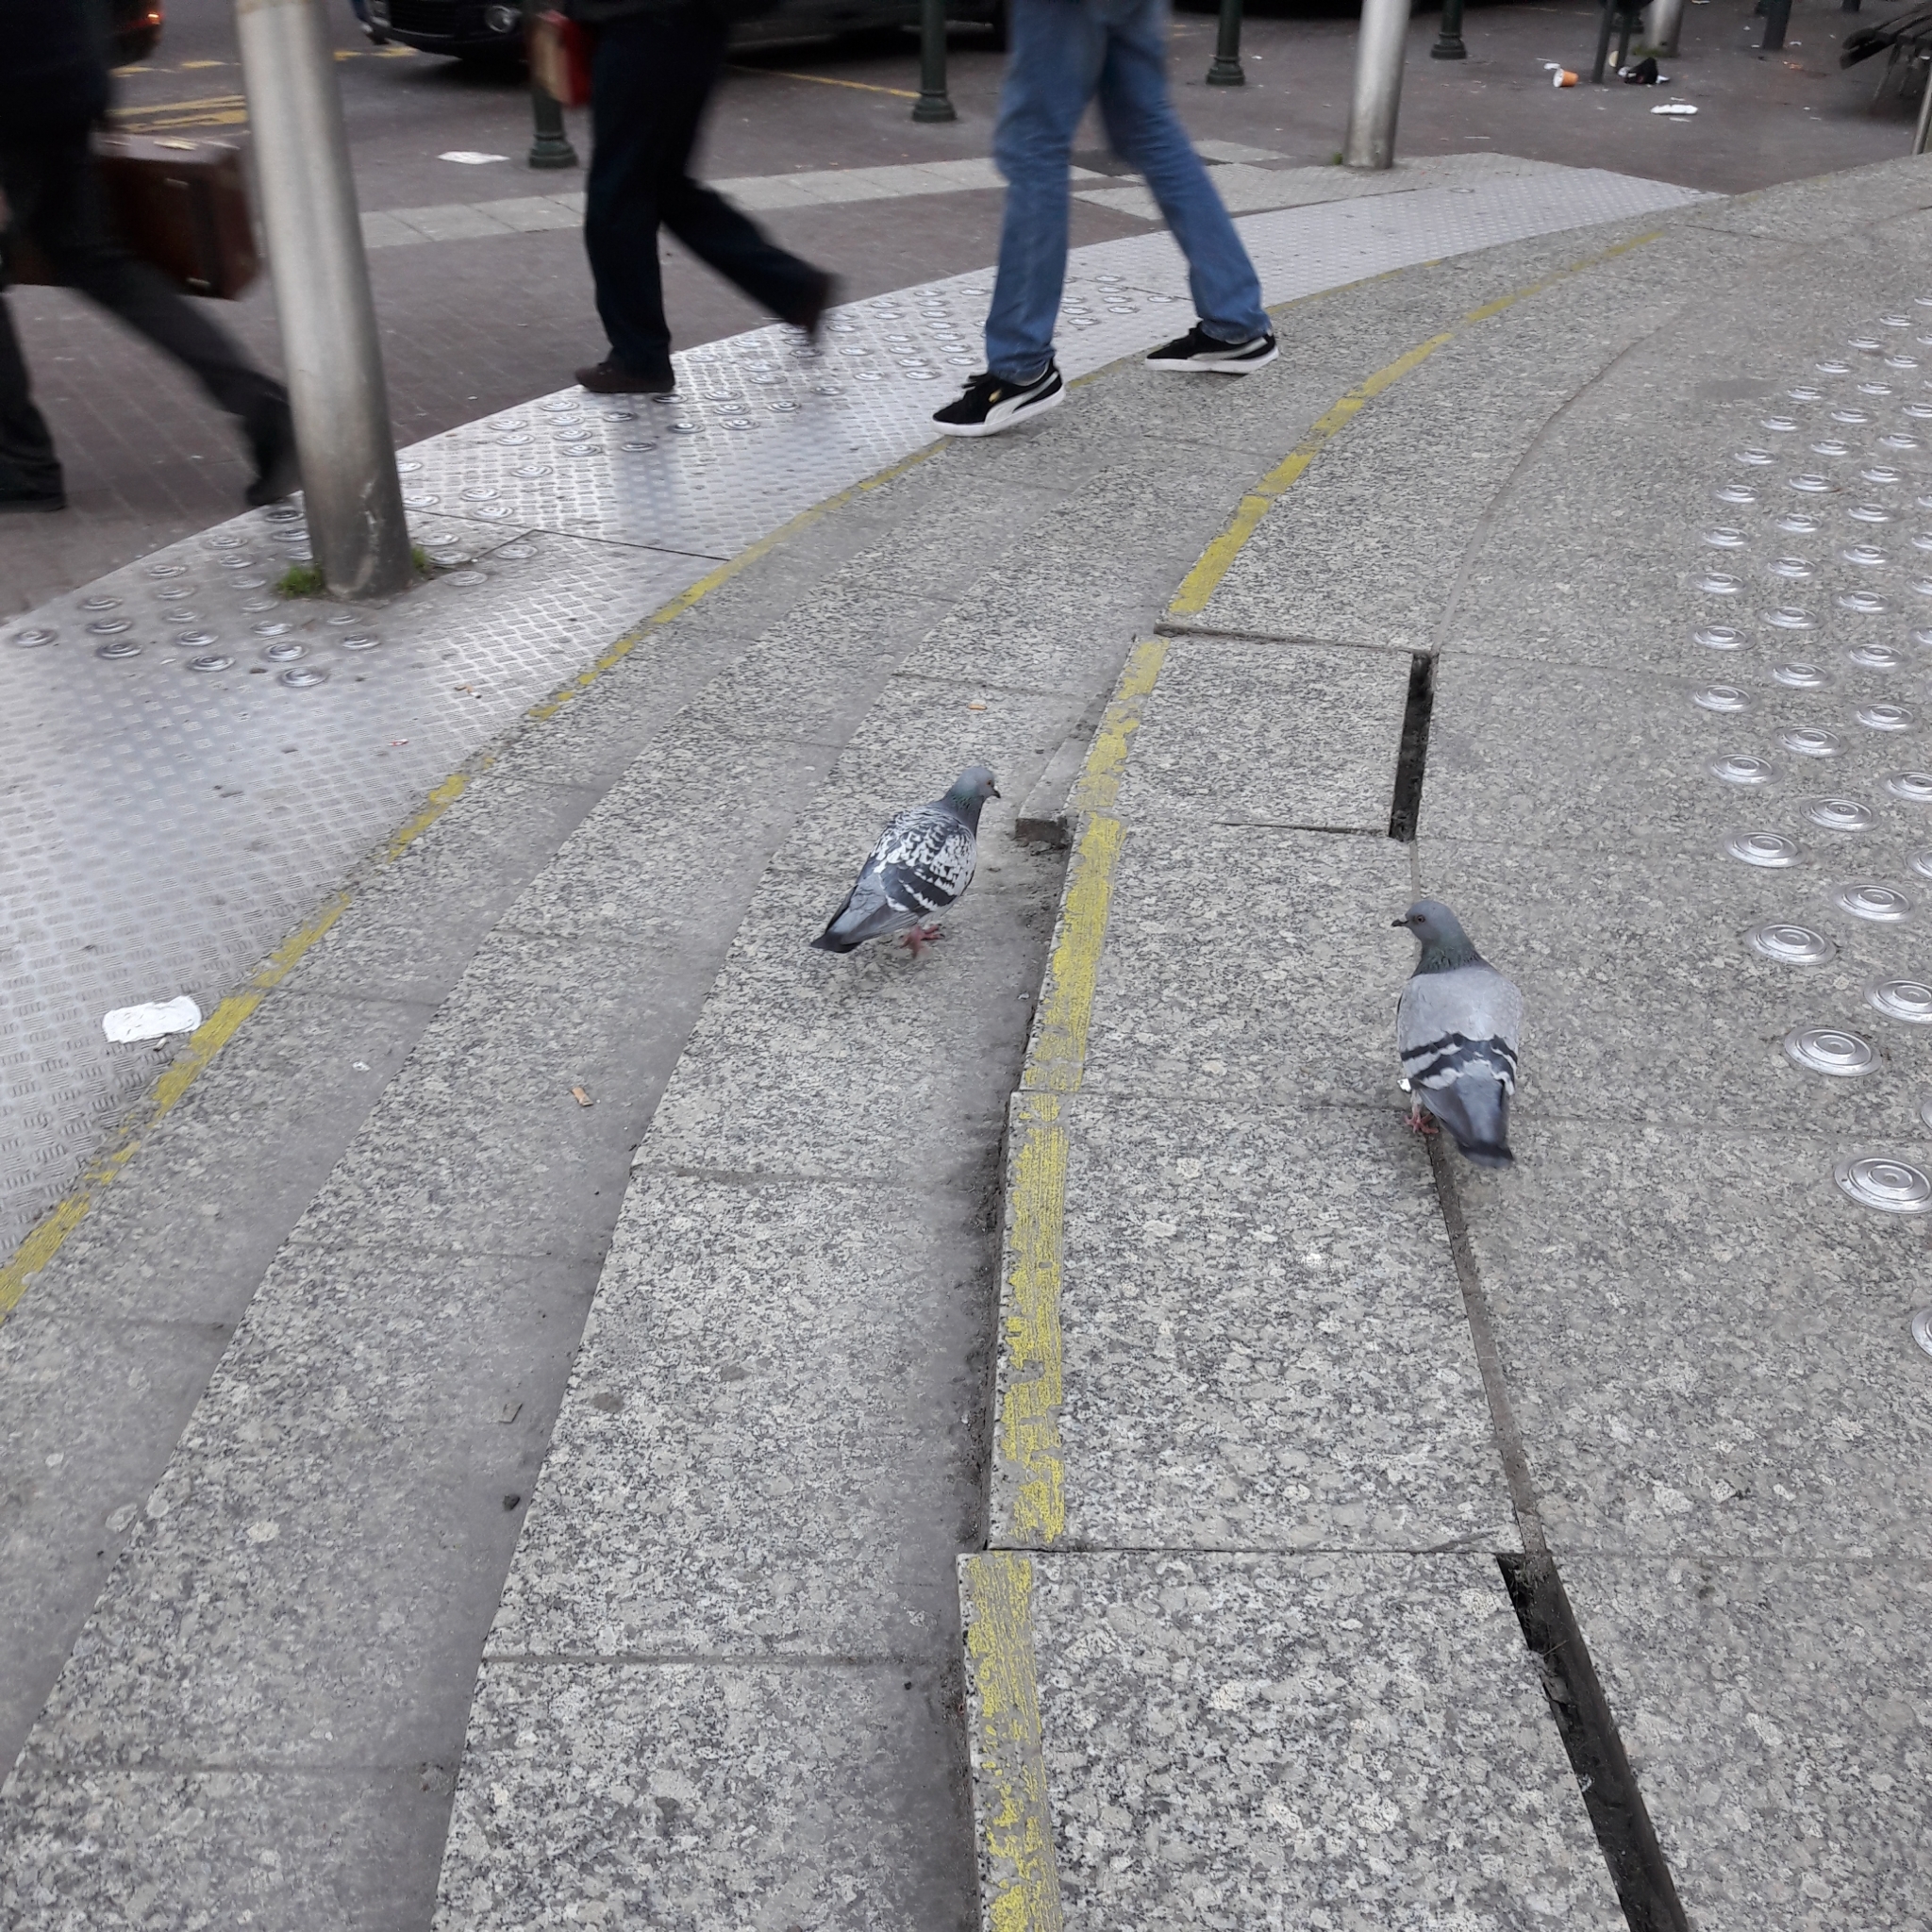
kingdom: Animalia
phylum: Chordata
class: Aves
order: Columbiformes
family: Columbidae
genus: Columba
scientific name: Columba livia
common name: Rock pigeon
